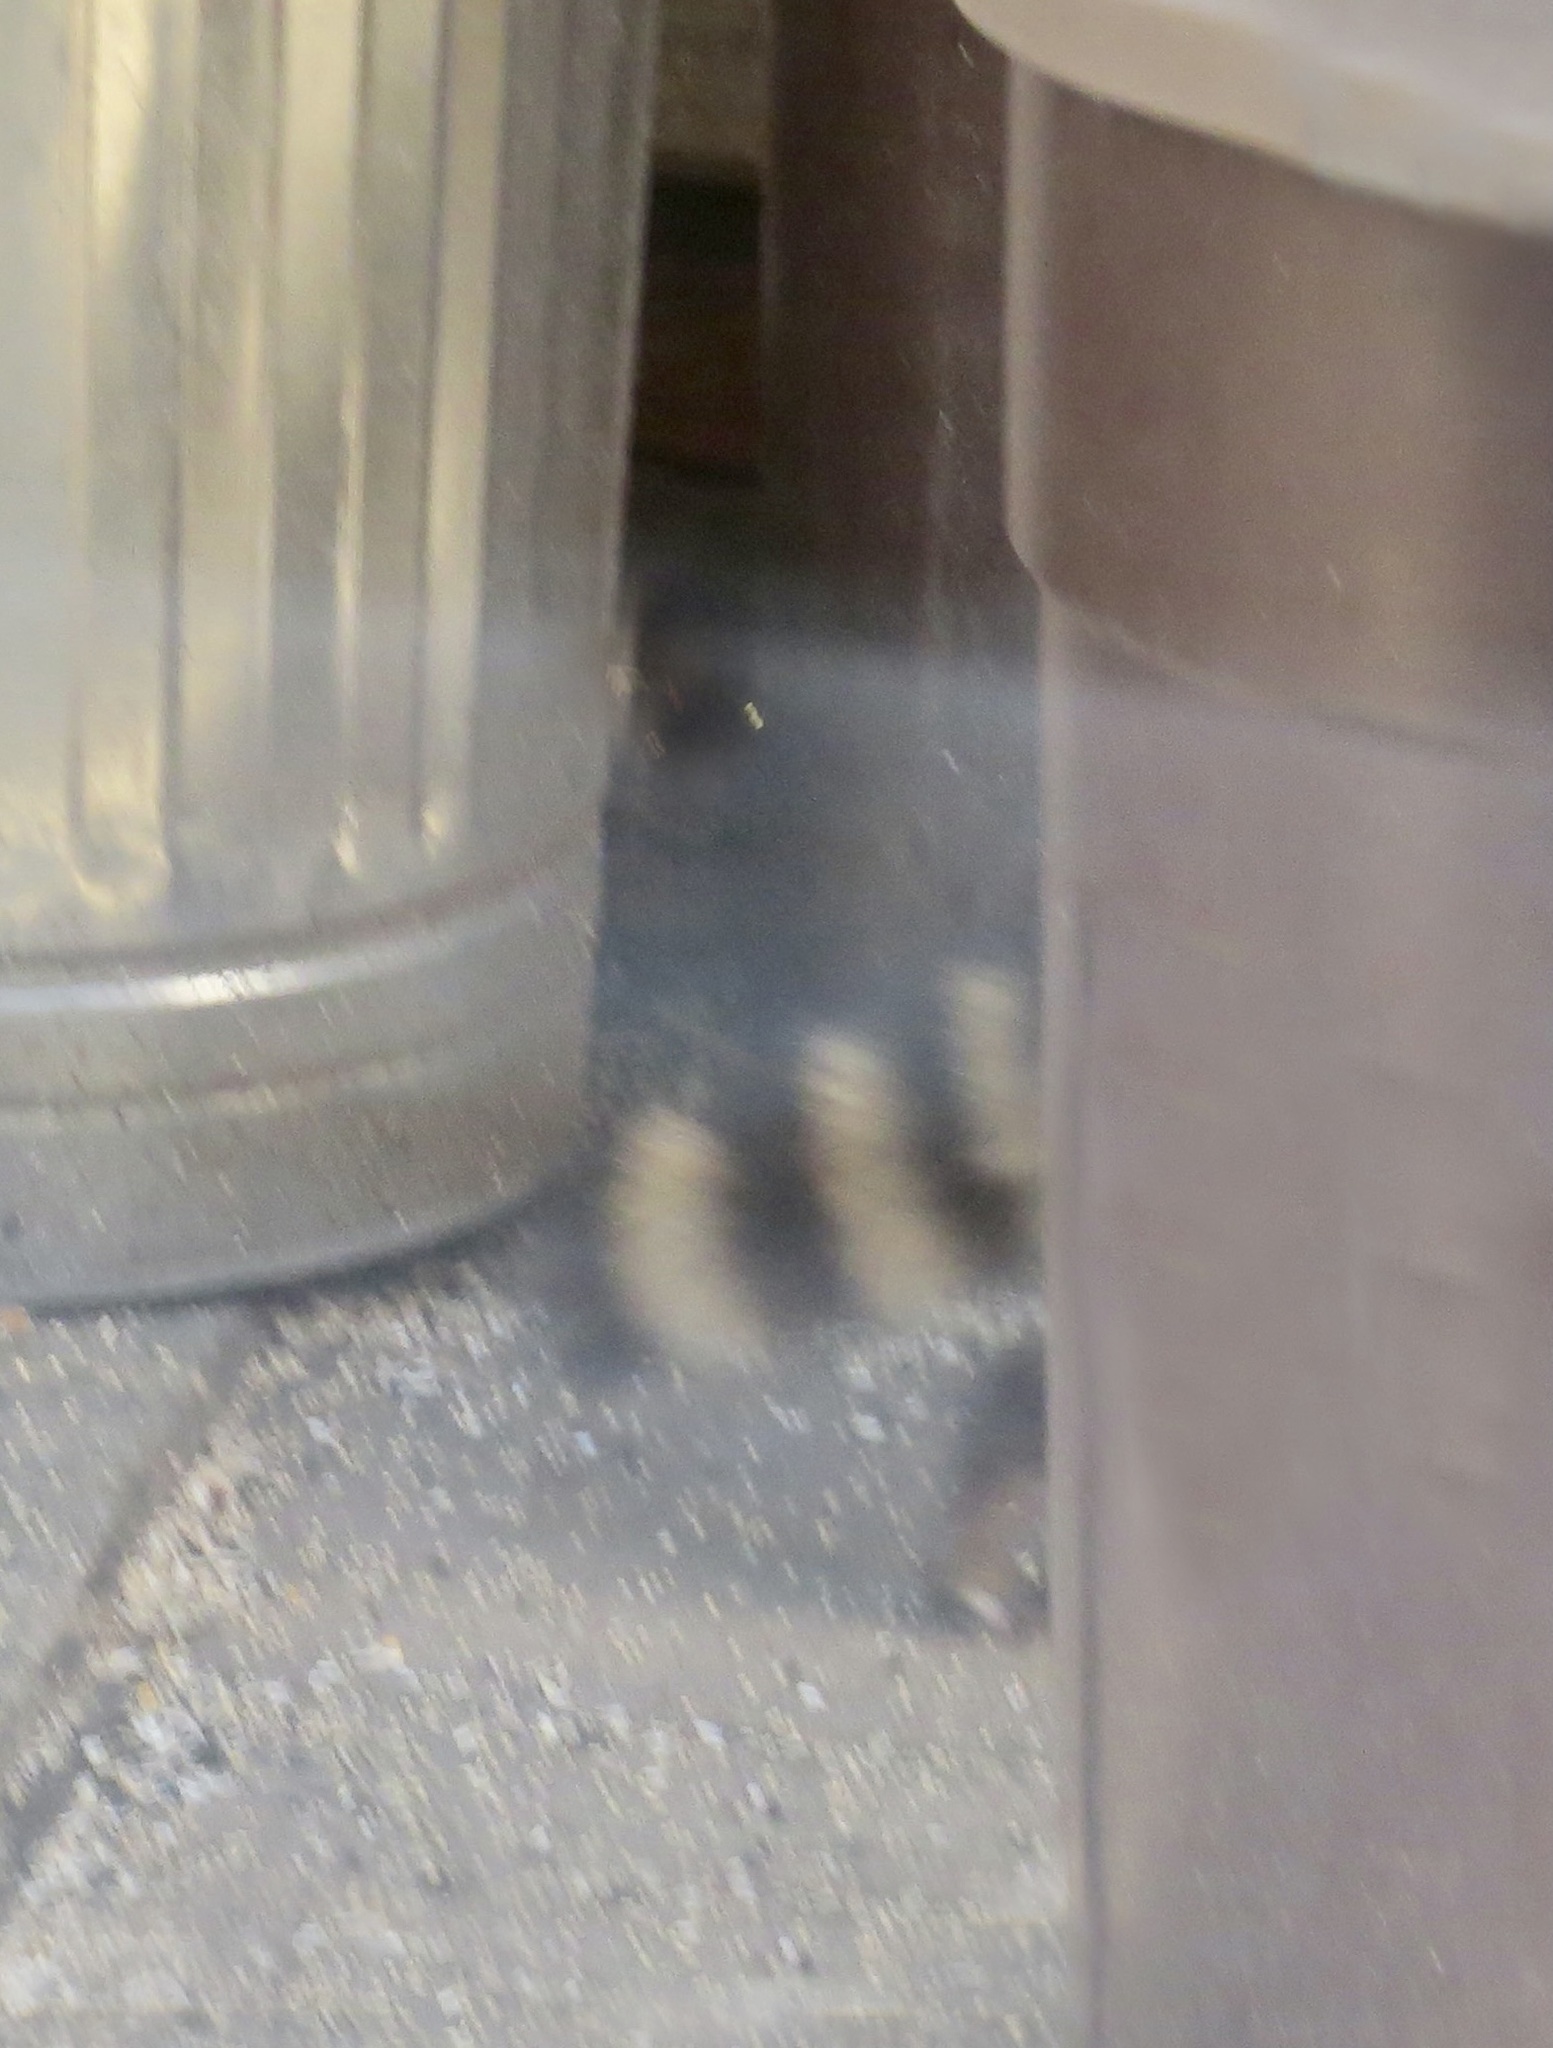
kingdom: Animalia
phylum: Chordata
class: Mammalia
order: Carnivora
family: Procyonidae
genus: Procyon
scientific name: Procyon lotor
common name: Raccoon
